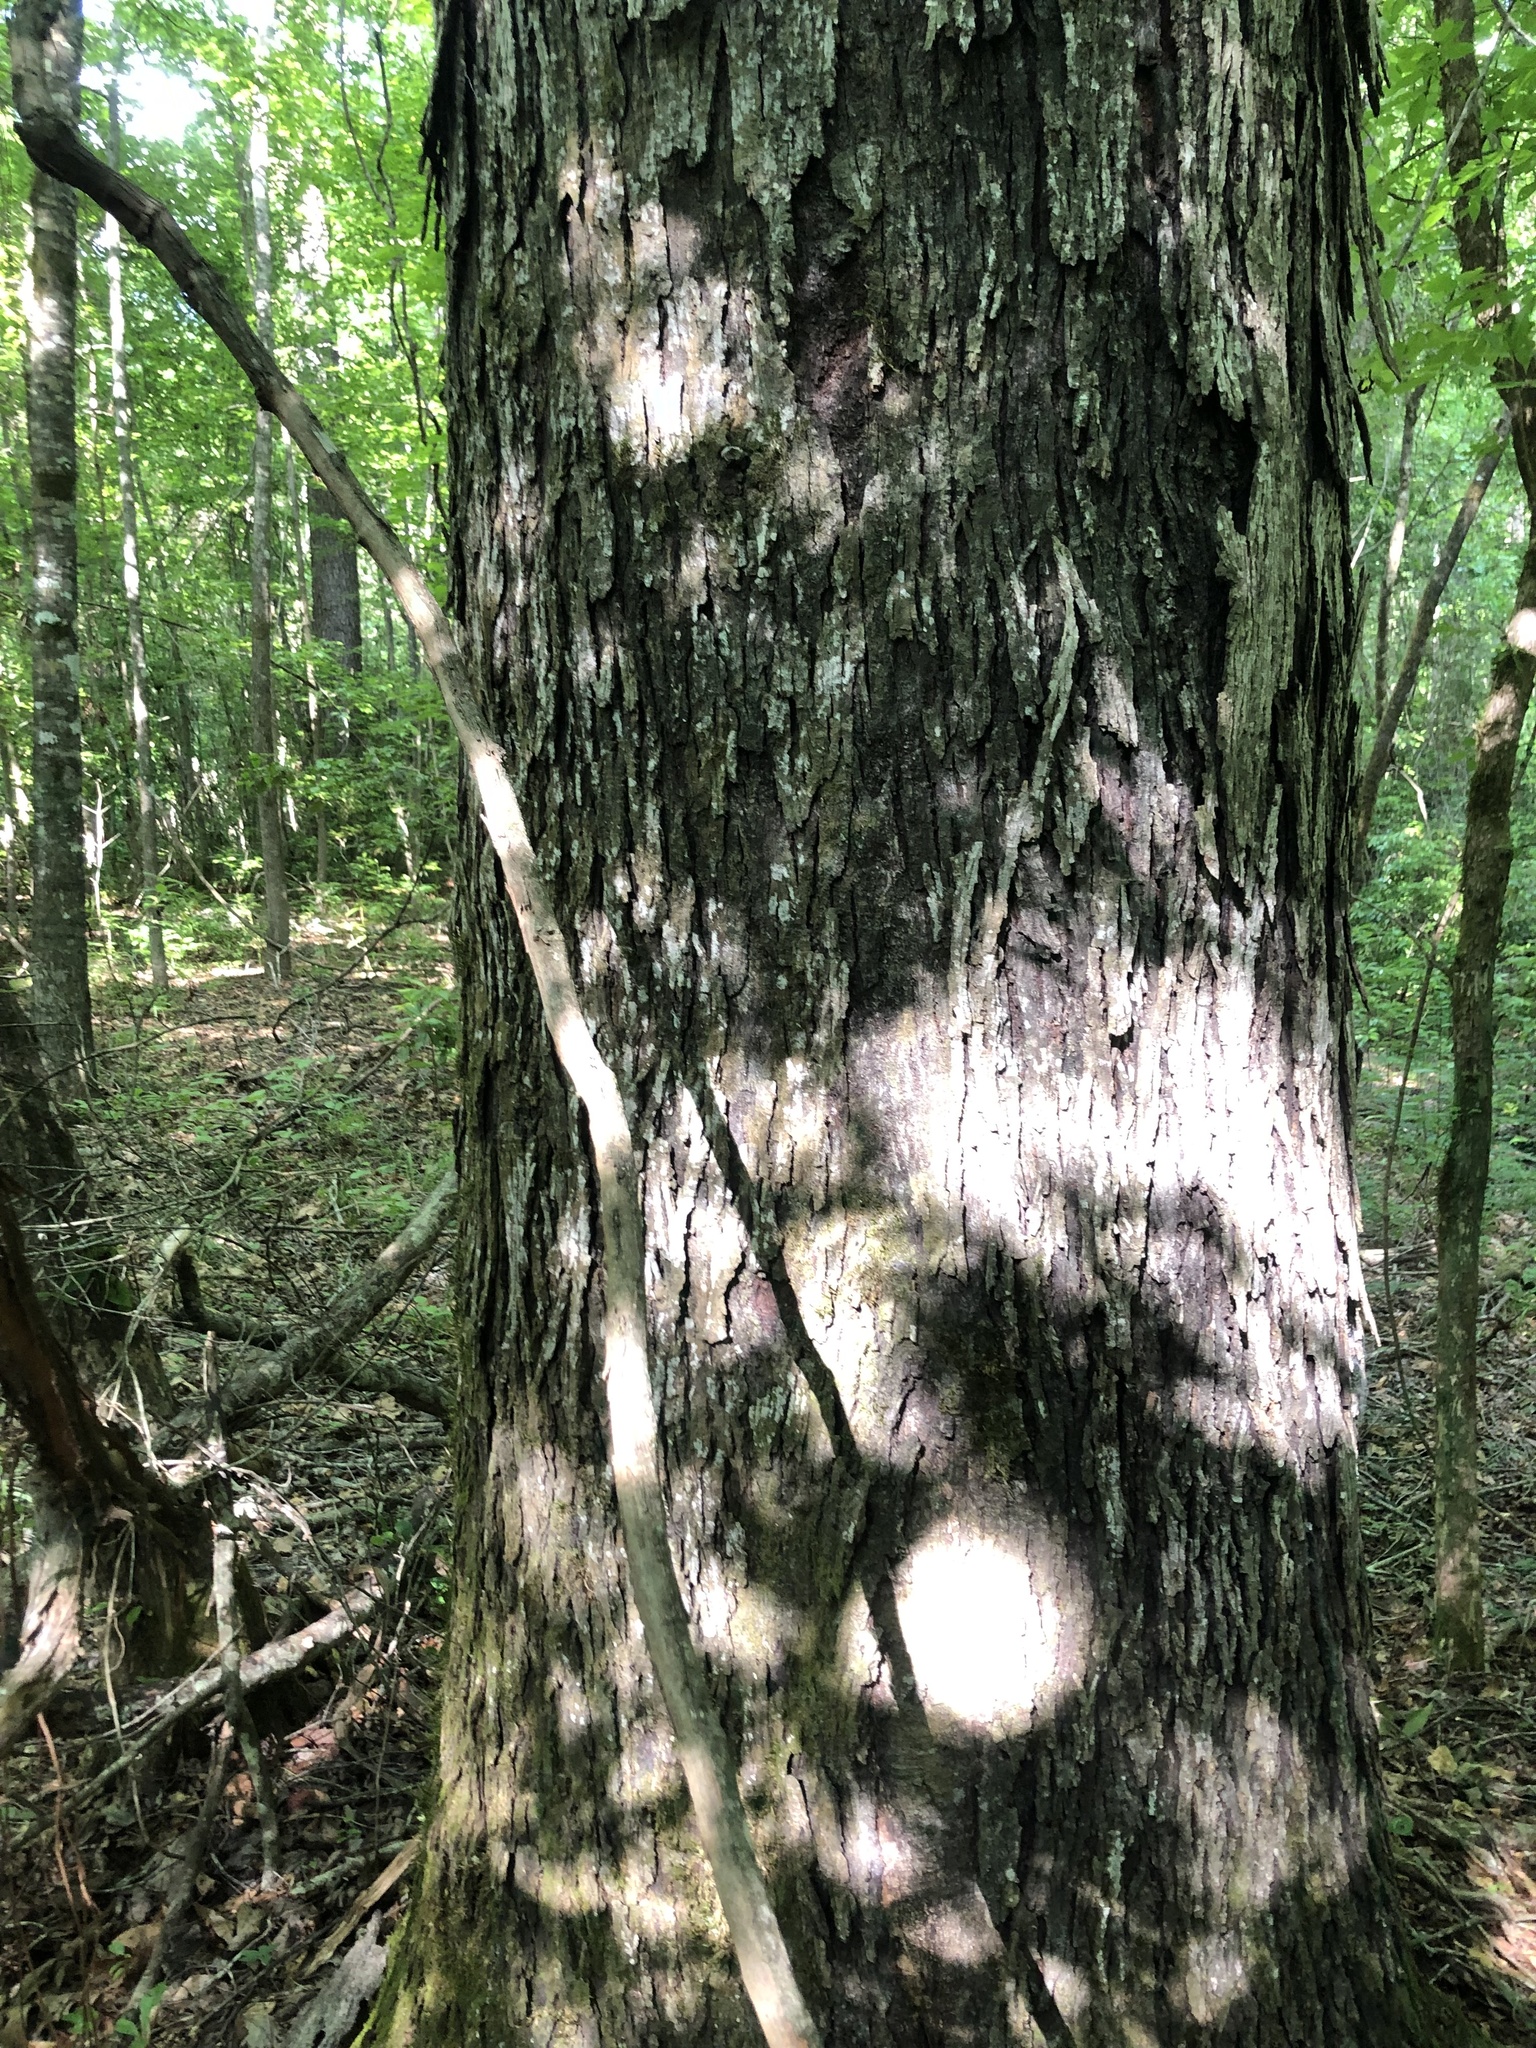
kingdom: Plantae
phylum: Tracheophyta
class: Magnoliopsida
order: Fagales
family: Juglandaceae
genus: Carya
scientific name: Carya carolinae-septentrionalis
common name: Carolina hickory
